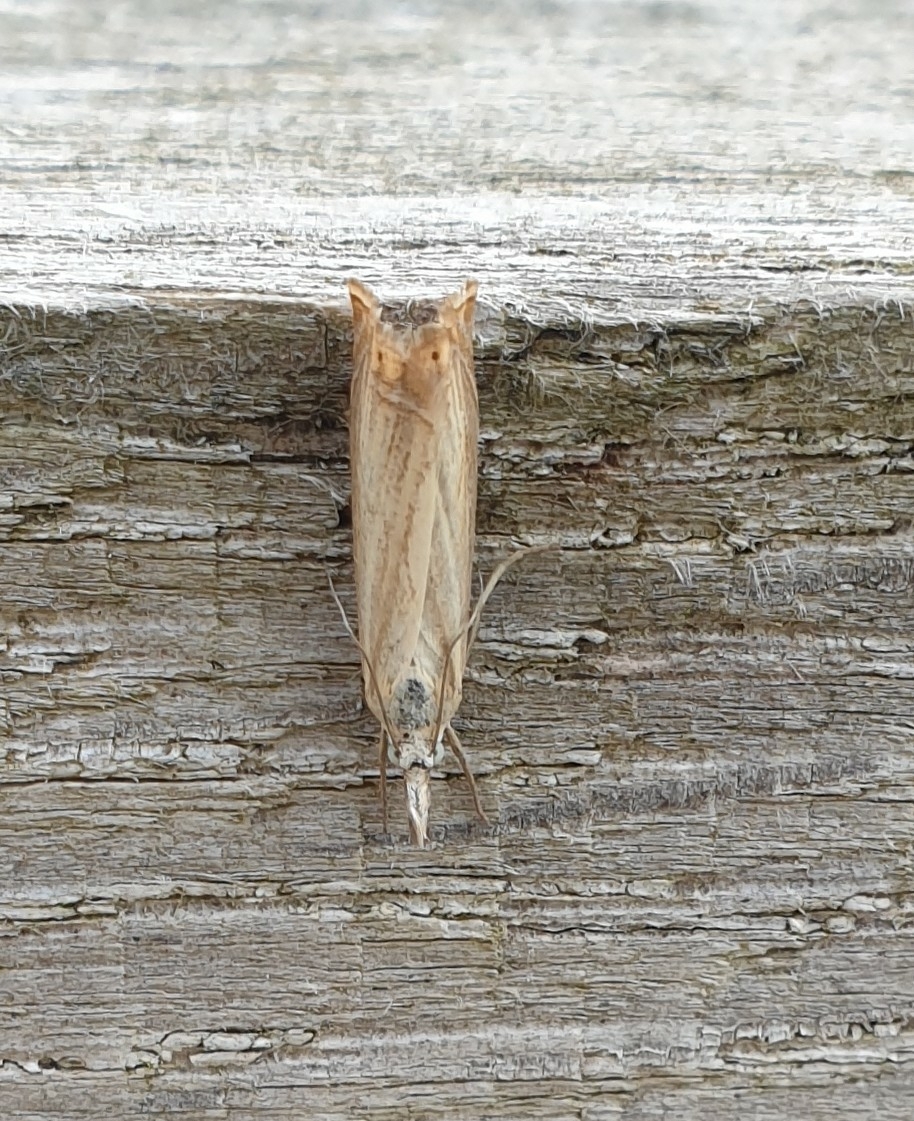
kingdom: Animalia
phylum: Arthropoda
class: Insecta
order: Lepidoptera
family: Crambidae
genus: Chrysoteuchia
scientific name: Chrysoteuchia culmella
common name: Garden grass-veneer
